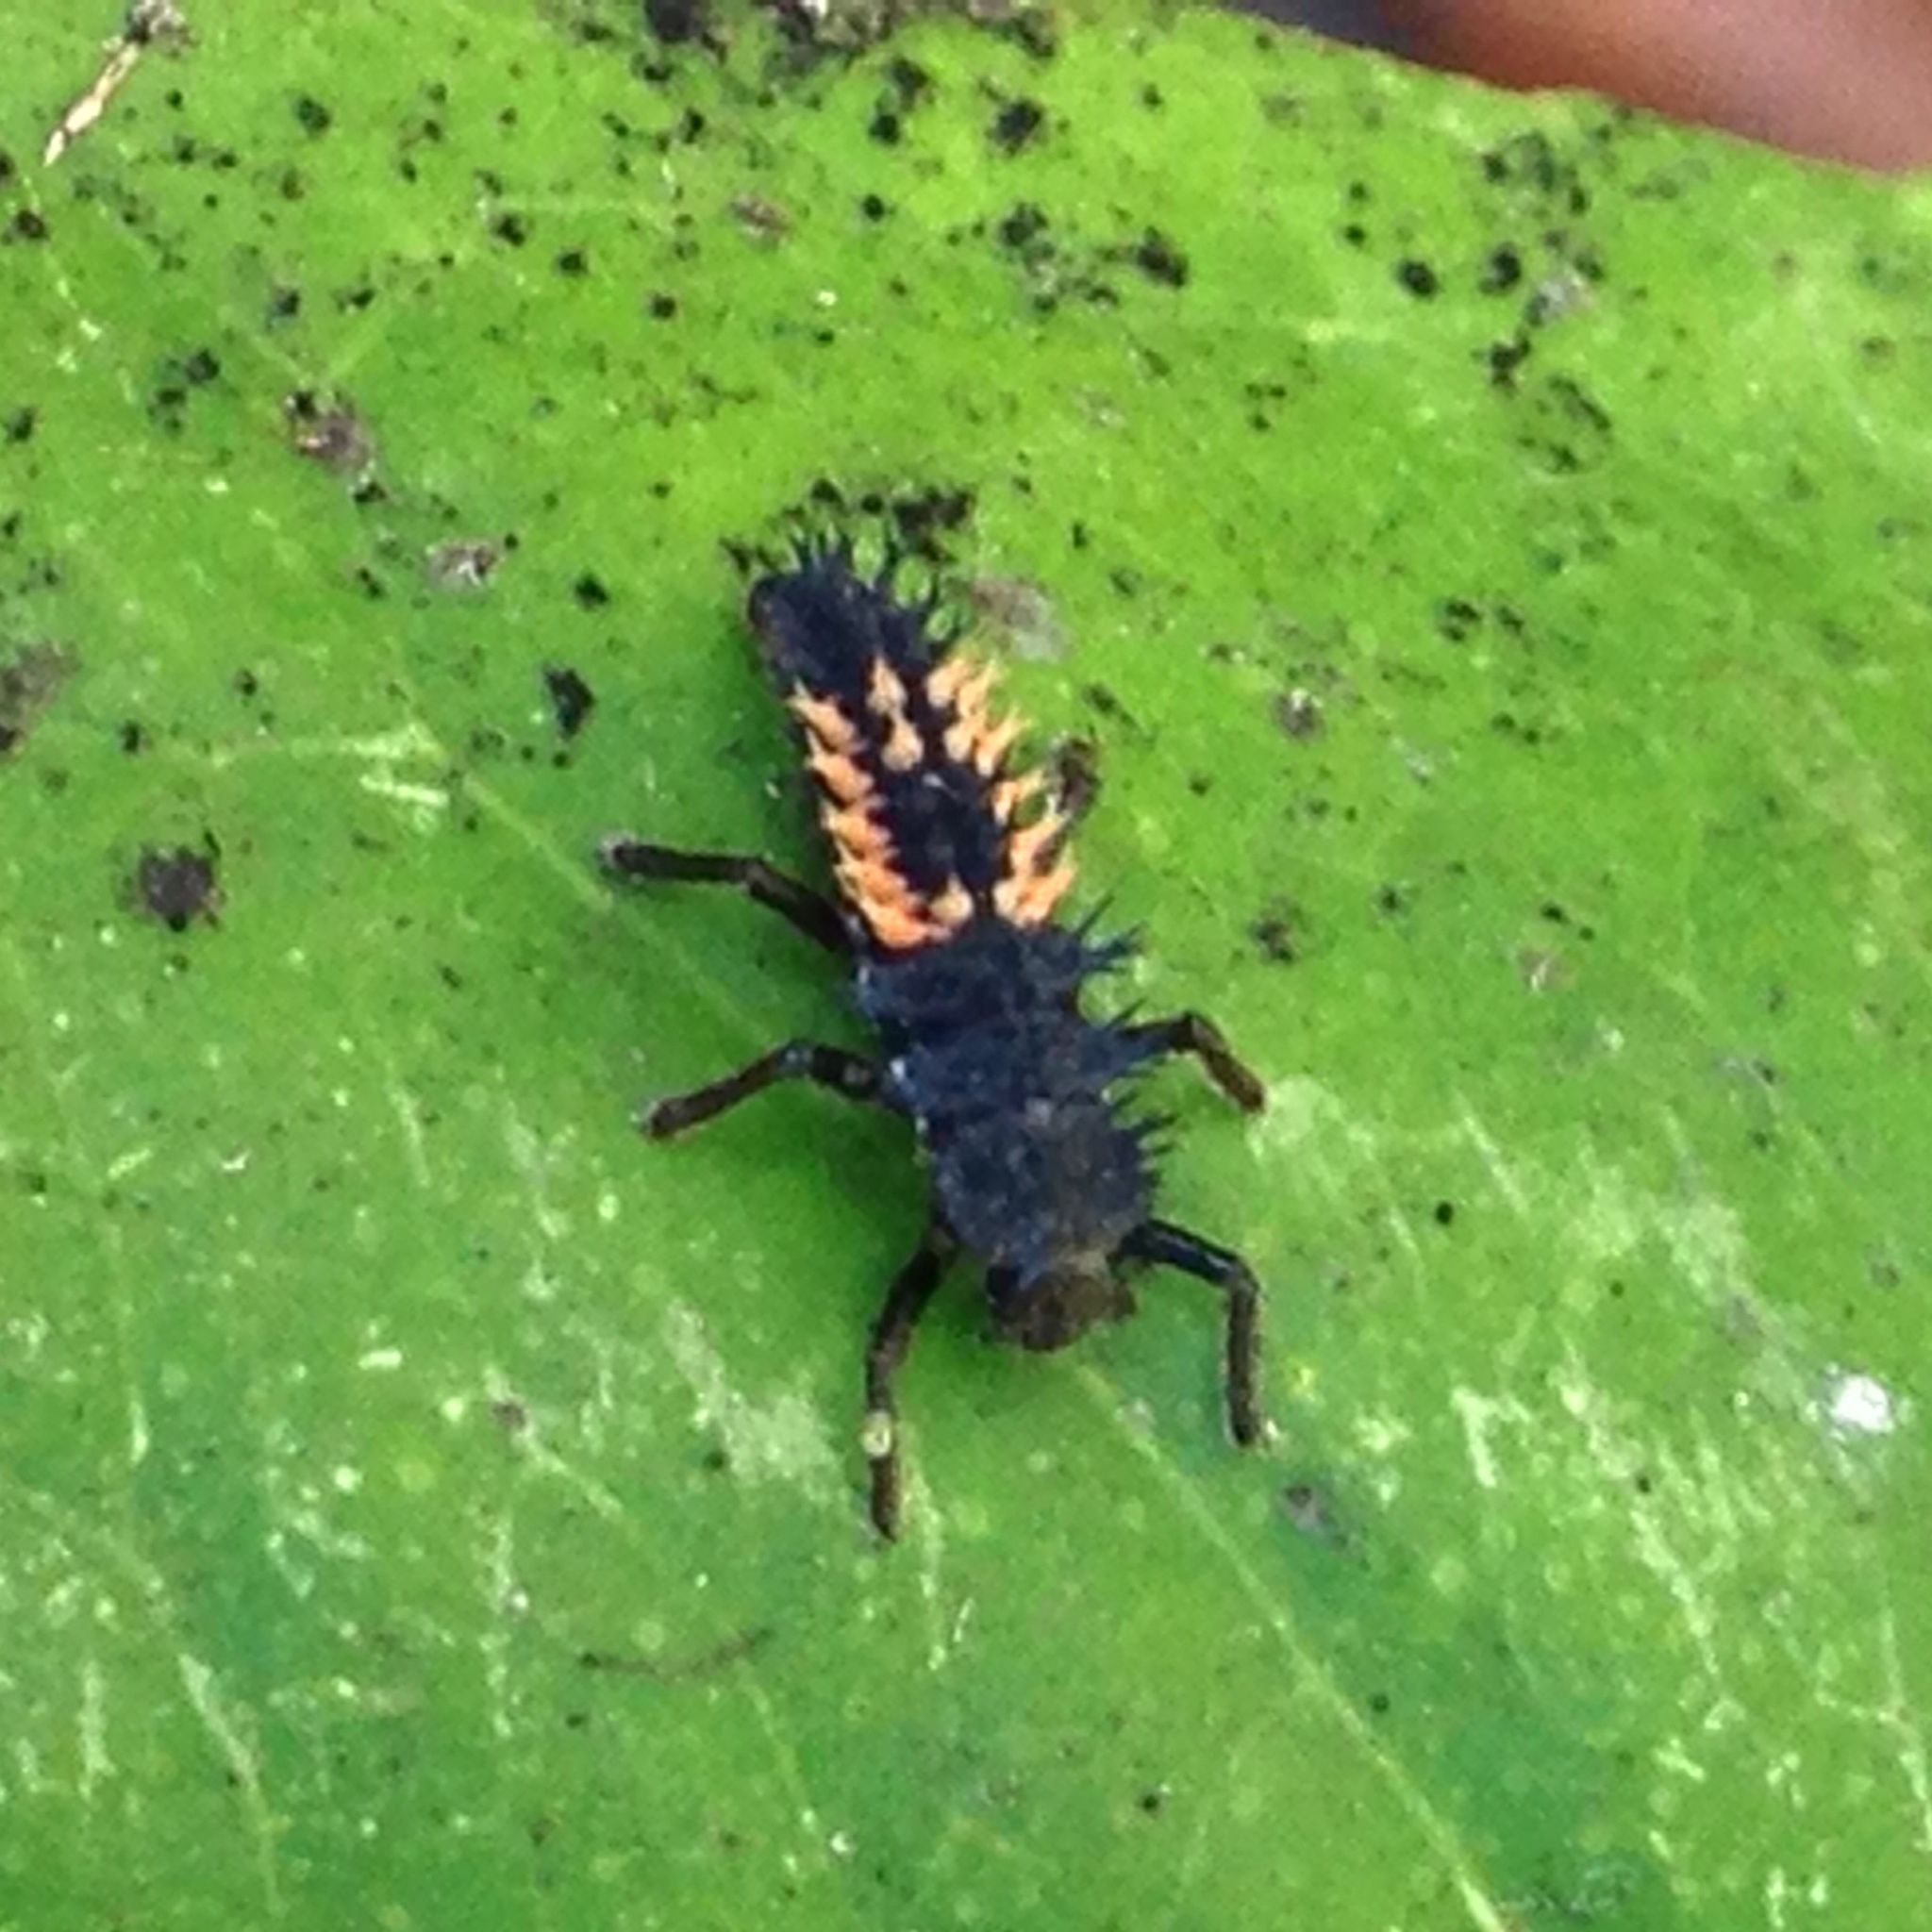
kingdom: Animalia
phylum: Arthropoda
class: Insecta
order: Coleoptera
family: Coccinellidae
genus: Harmonia
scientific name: Harmonia axyridis
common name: Harlequin ladybird
